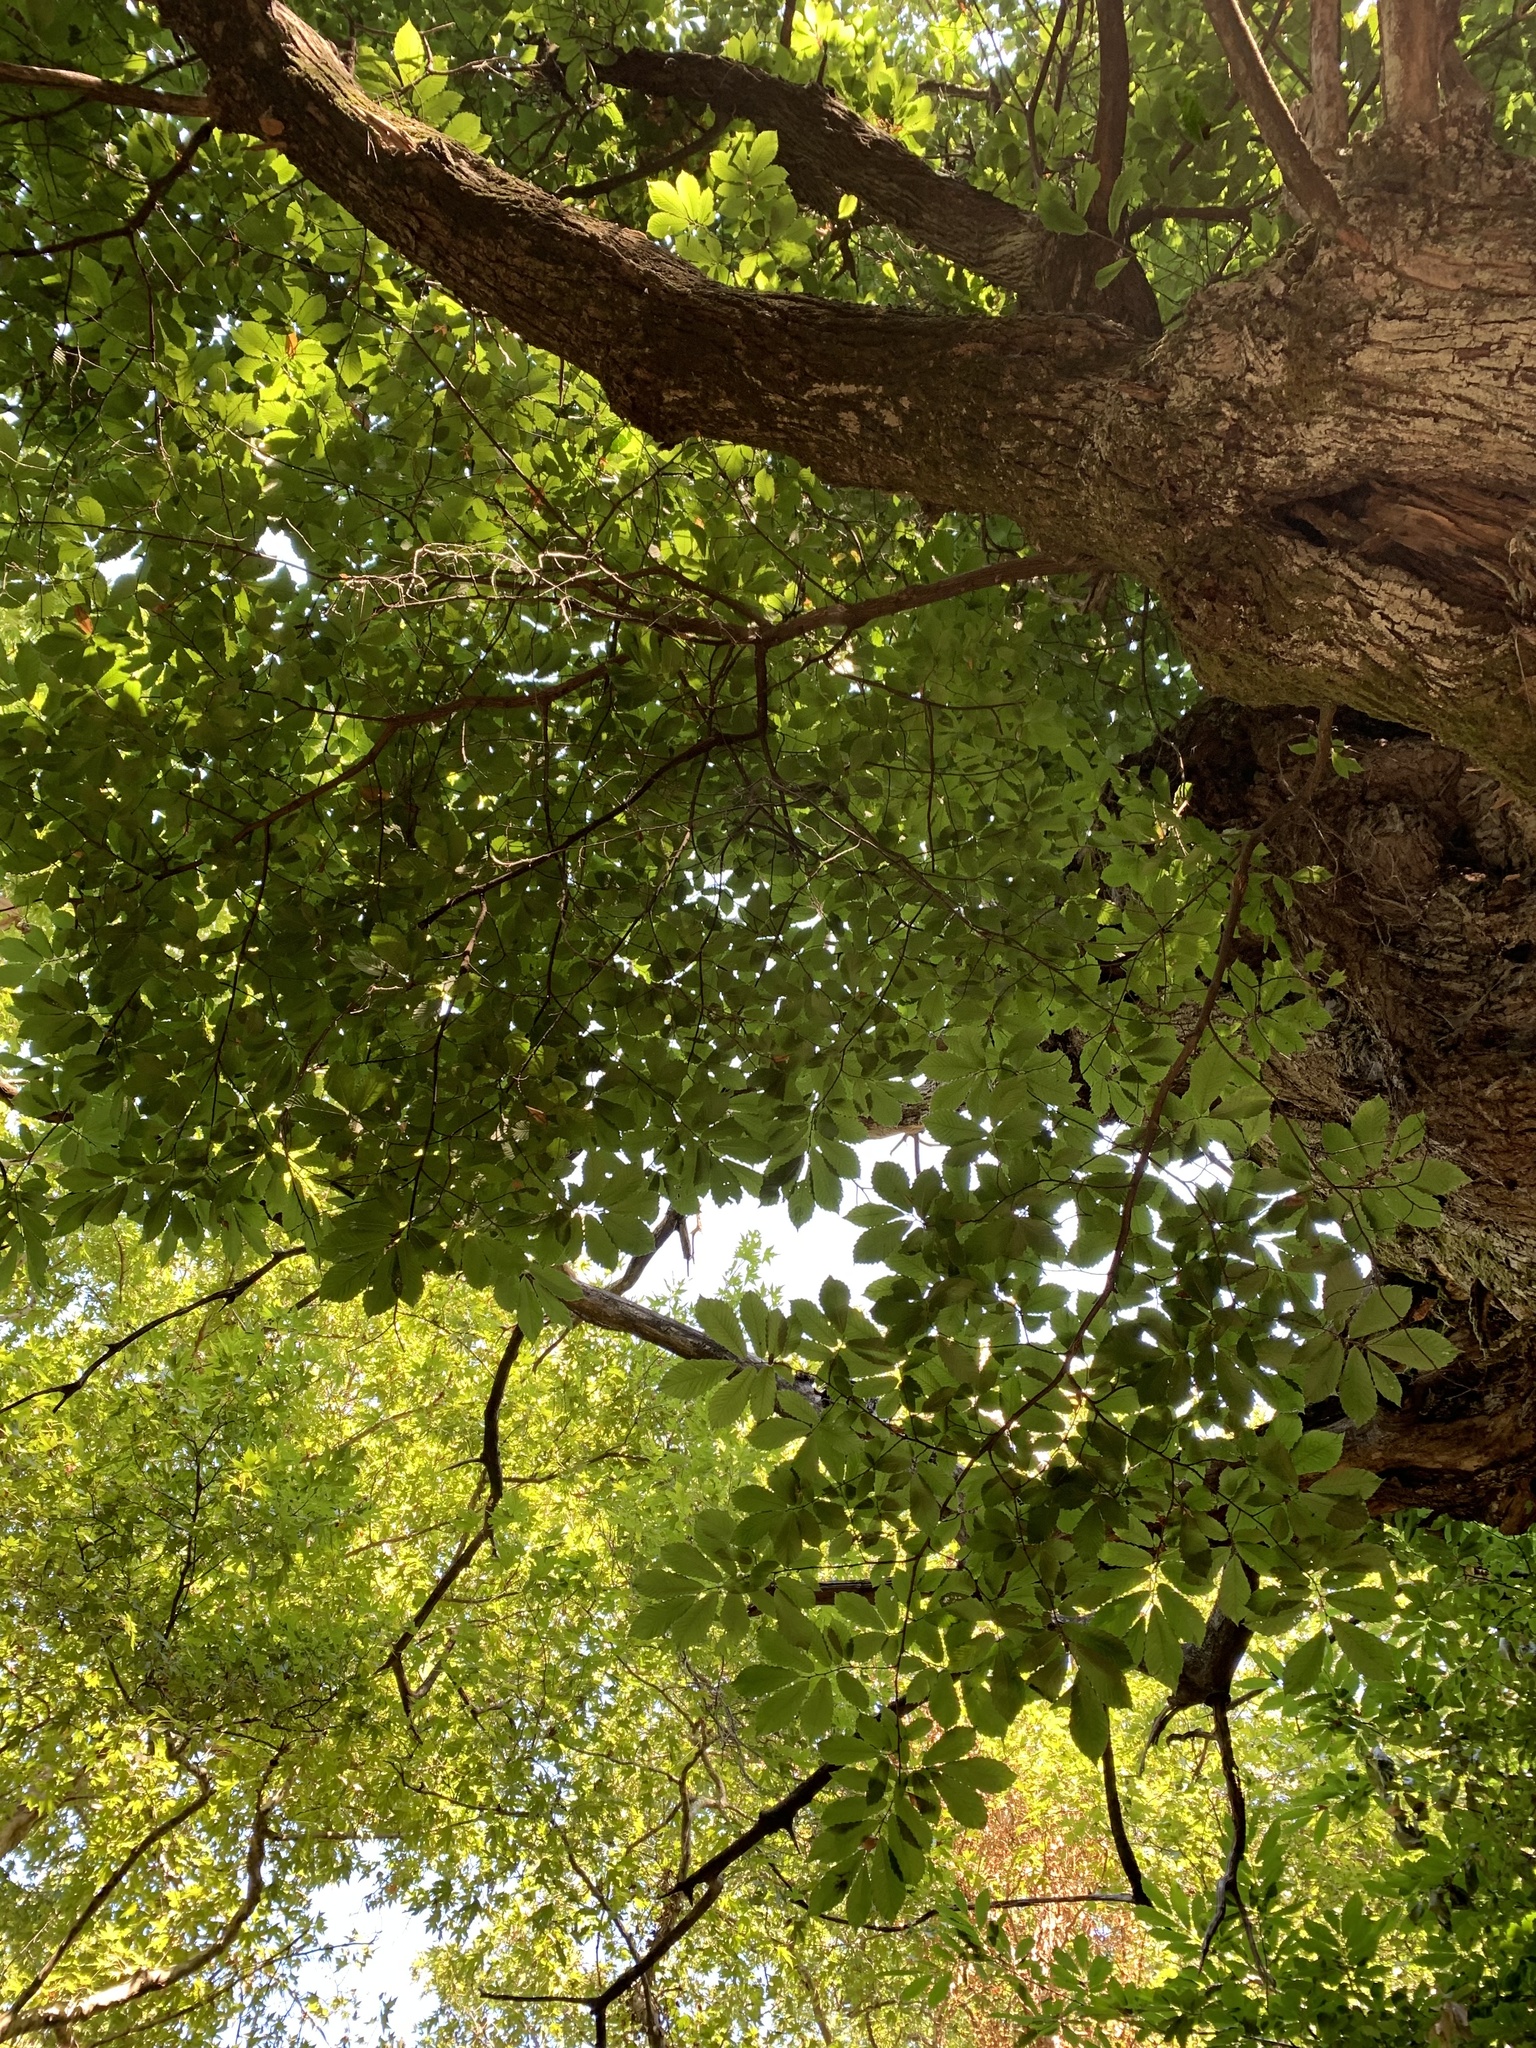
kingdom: Plantae
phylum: Tracheophyta
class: Magnoliopsida
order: Fagales
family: Fagaceae
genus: Castanea
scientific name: Castanea sativa
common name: Sweet chestnut
